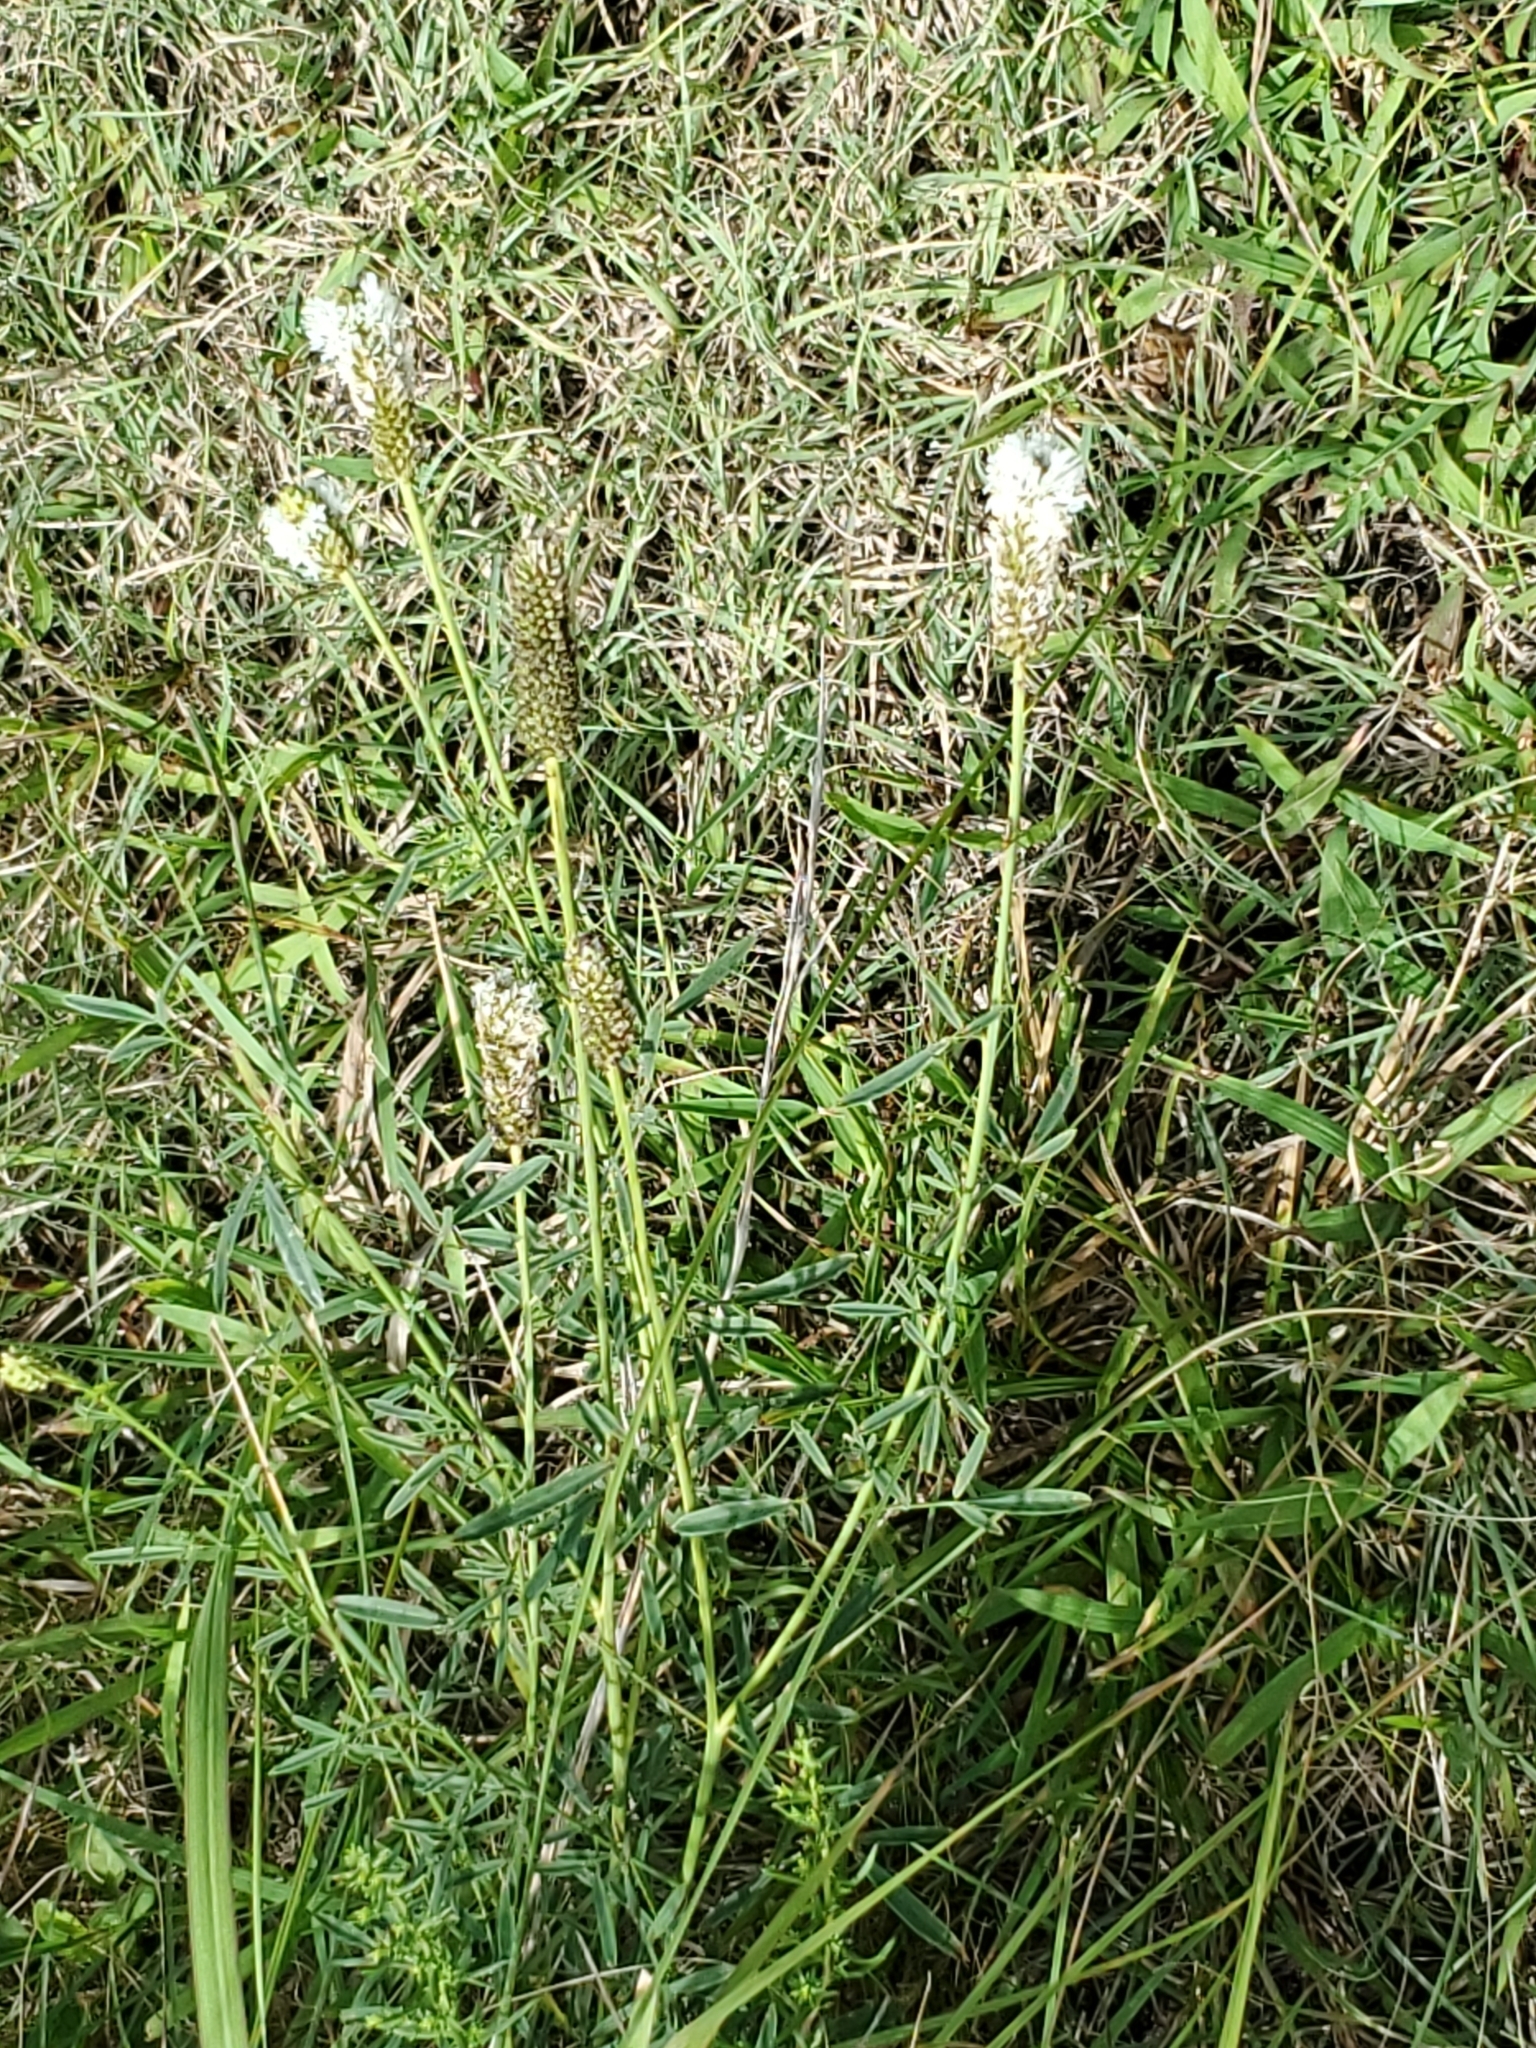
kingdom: Plantae
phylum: Tracheophyta
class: Magnoliopsida
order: Fabales
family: Fabaceae
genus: Dalea
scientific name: Dalea candida
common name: White prairie-clover
